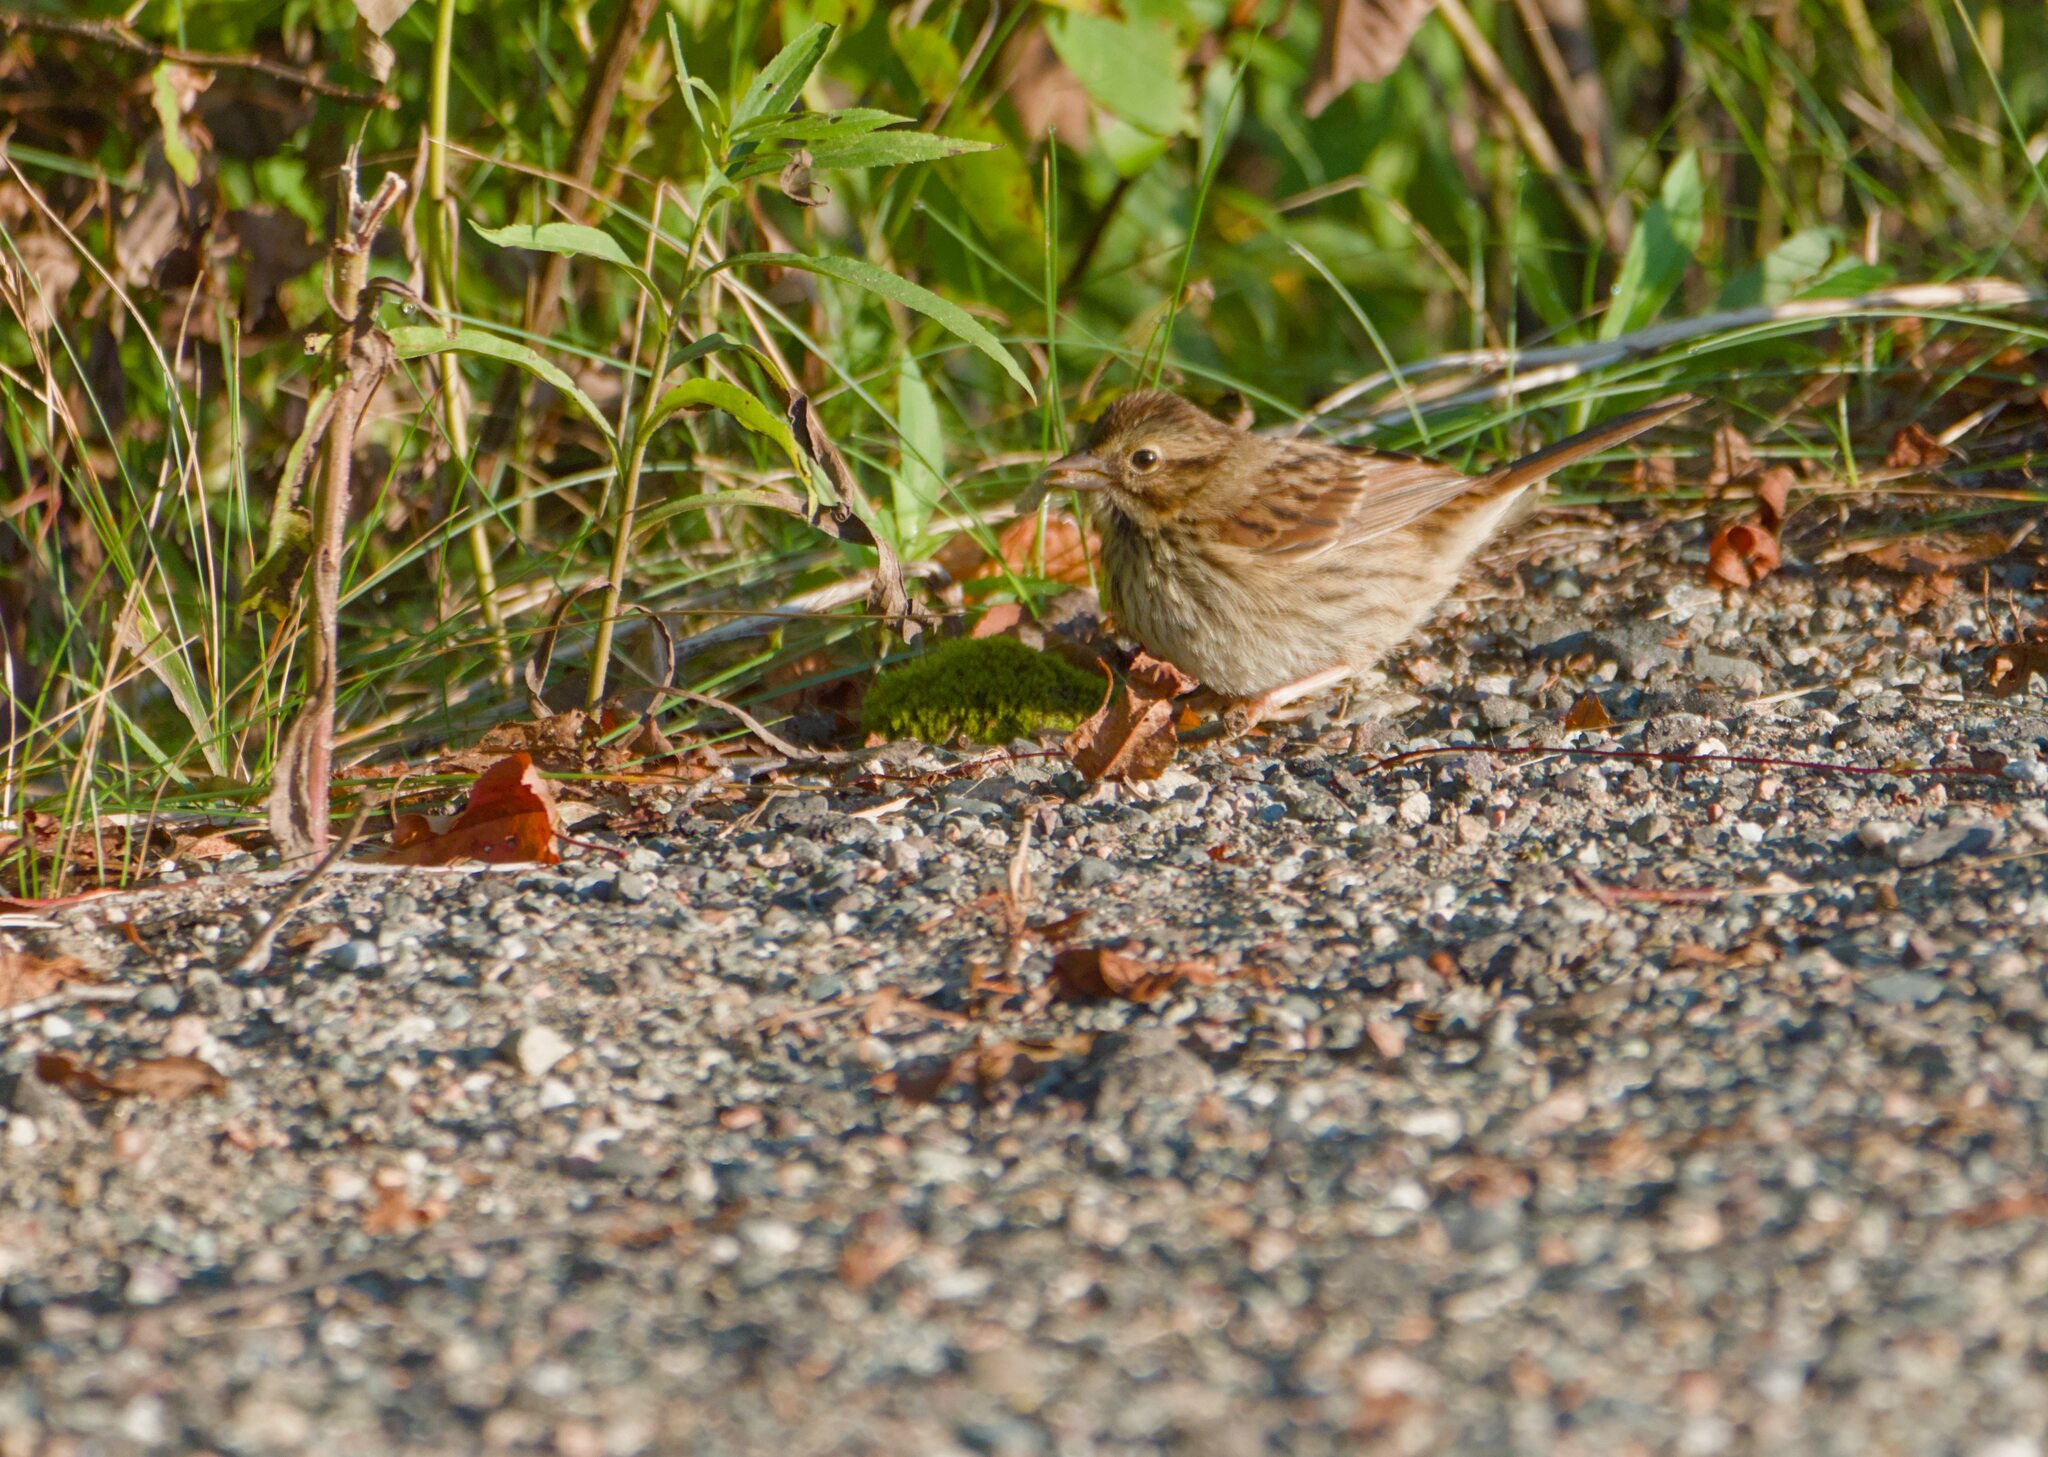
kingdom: Animalia
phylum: Chordata
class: Aves
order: Passeriformes
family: Passerellidae
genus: Melospiza
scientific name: Melospiza melodia
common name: Song sparrow
